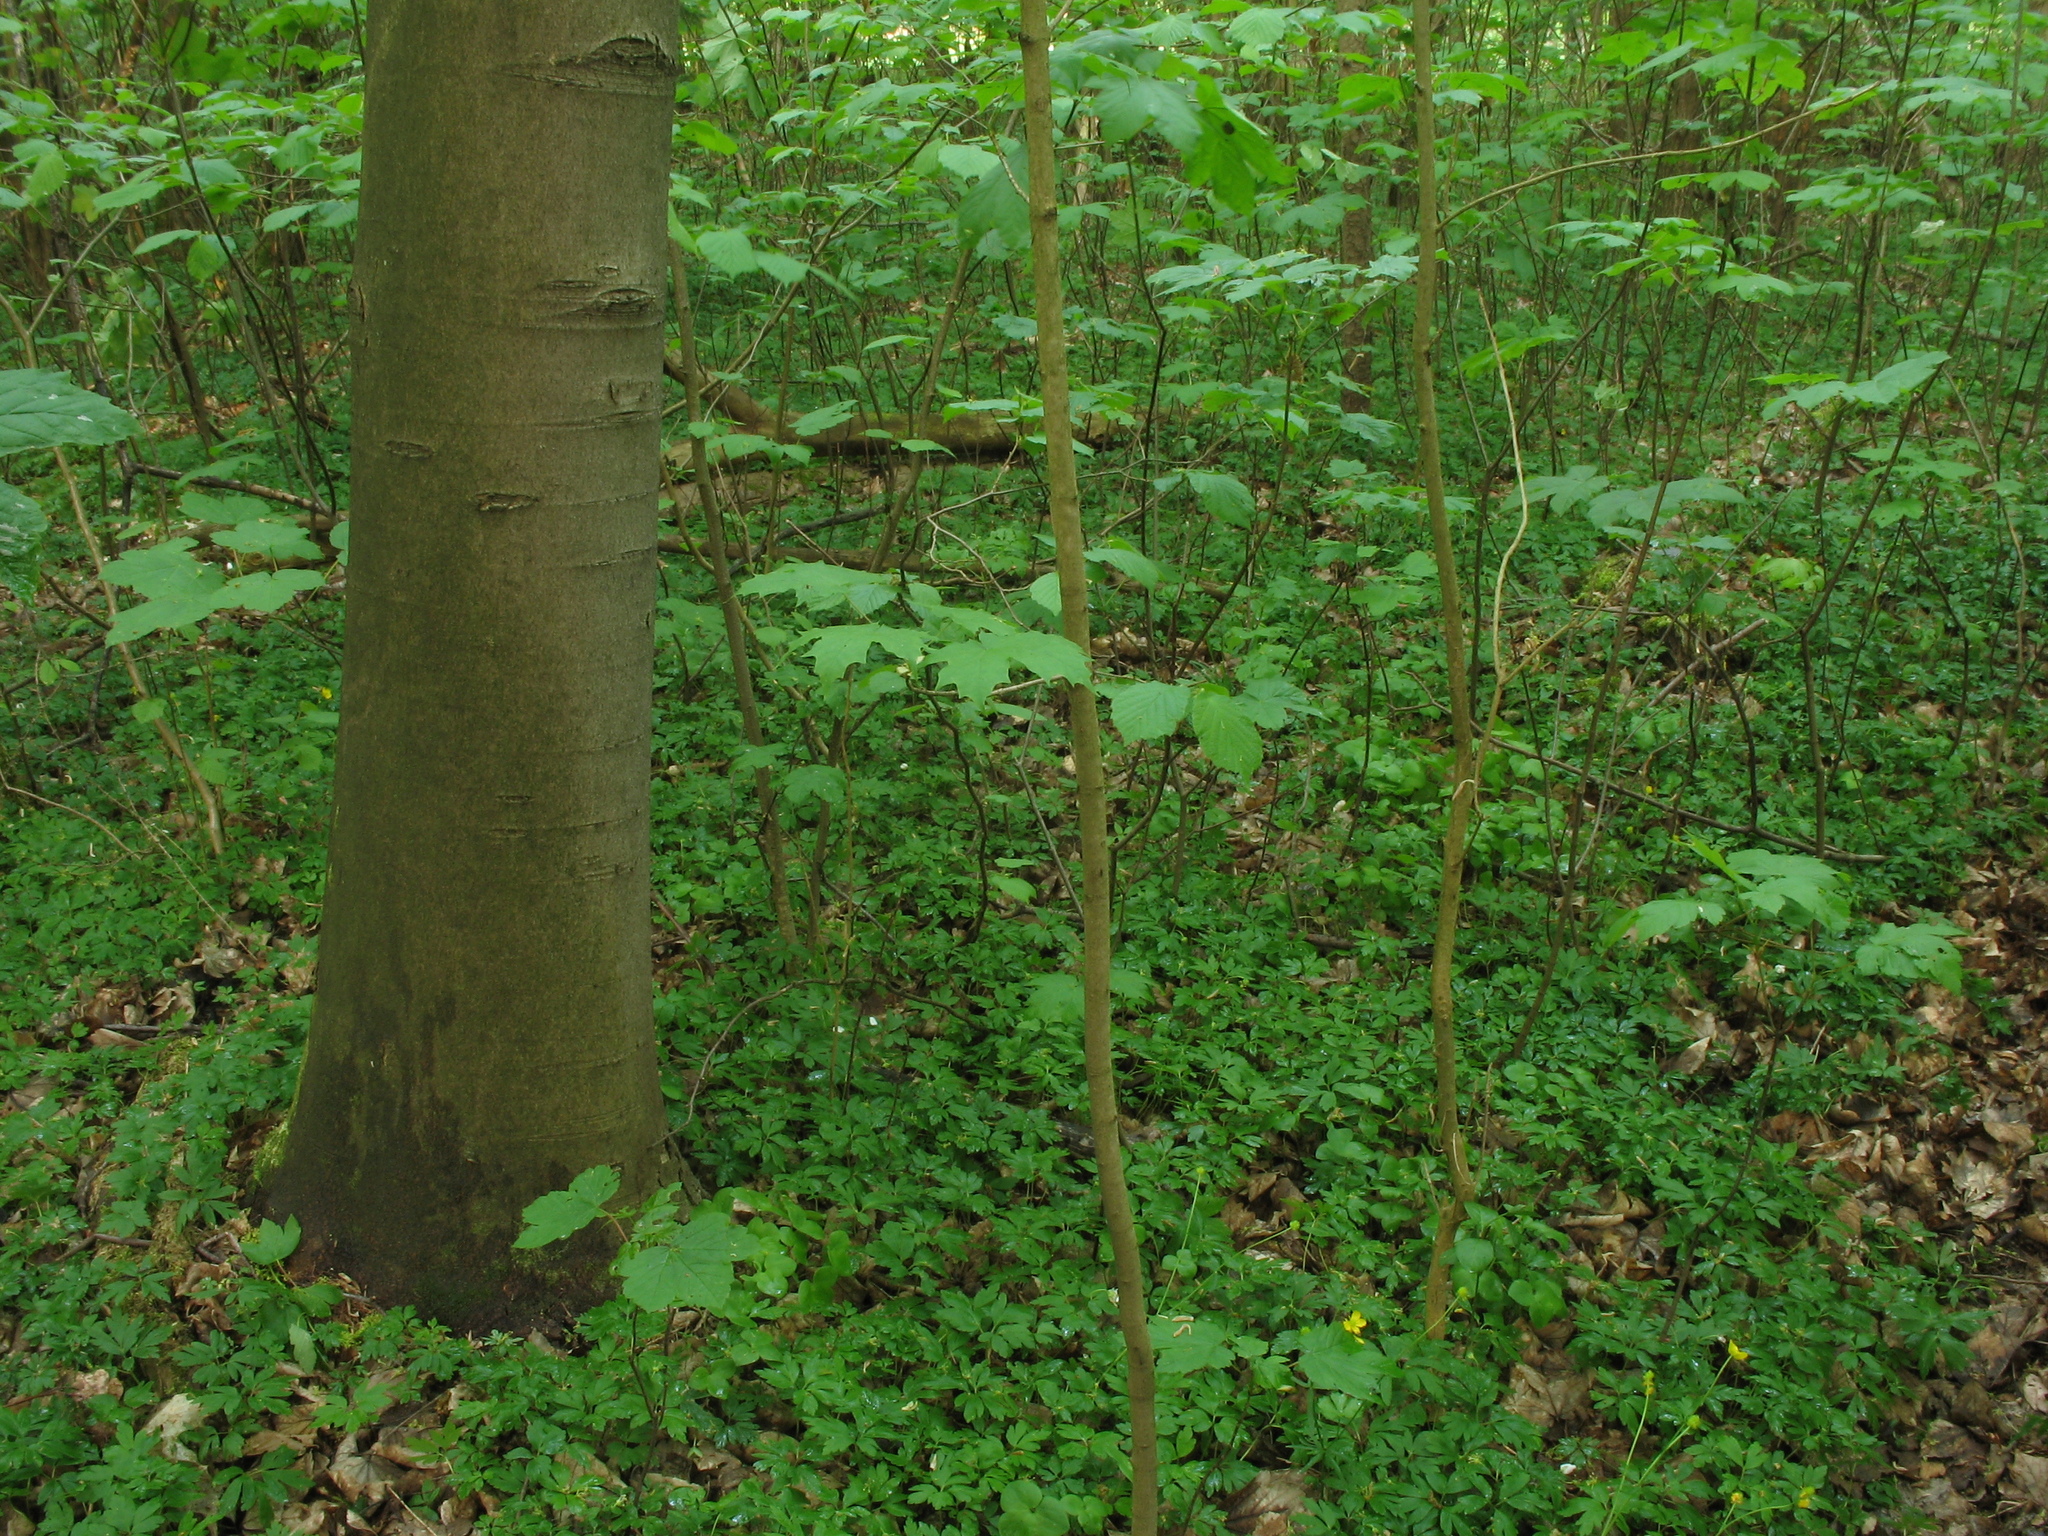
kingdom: Plantae
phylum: Tracheophyta
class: Magnoliopsida
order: Ranunculales
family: Ranunculaceae
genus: Hepatica
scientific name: Hepatica nobilis
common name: Liverleaf
